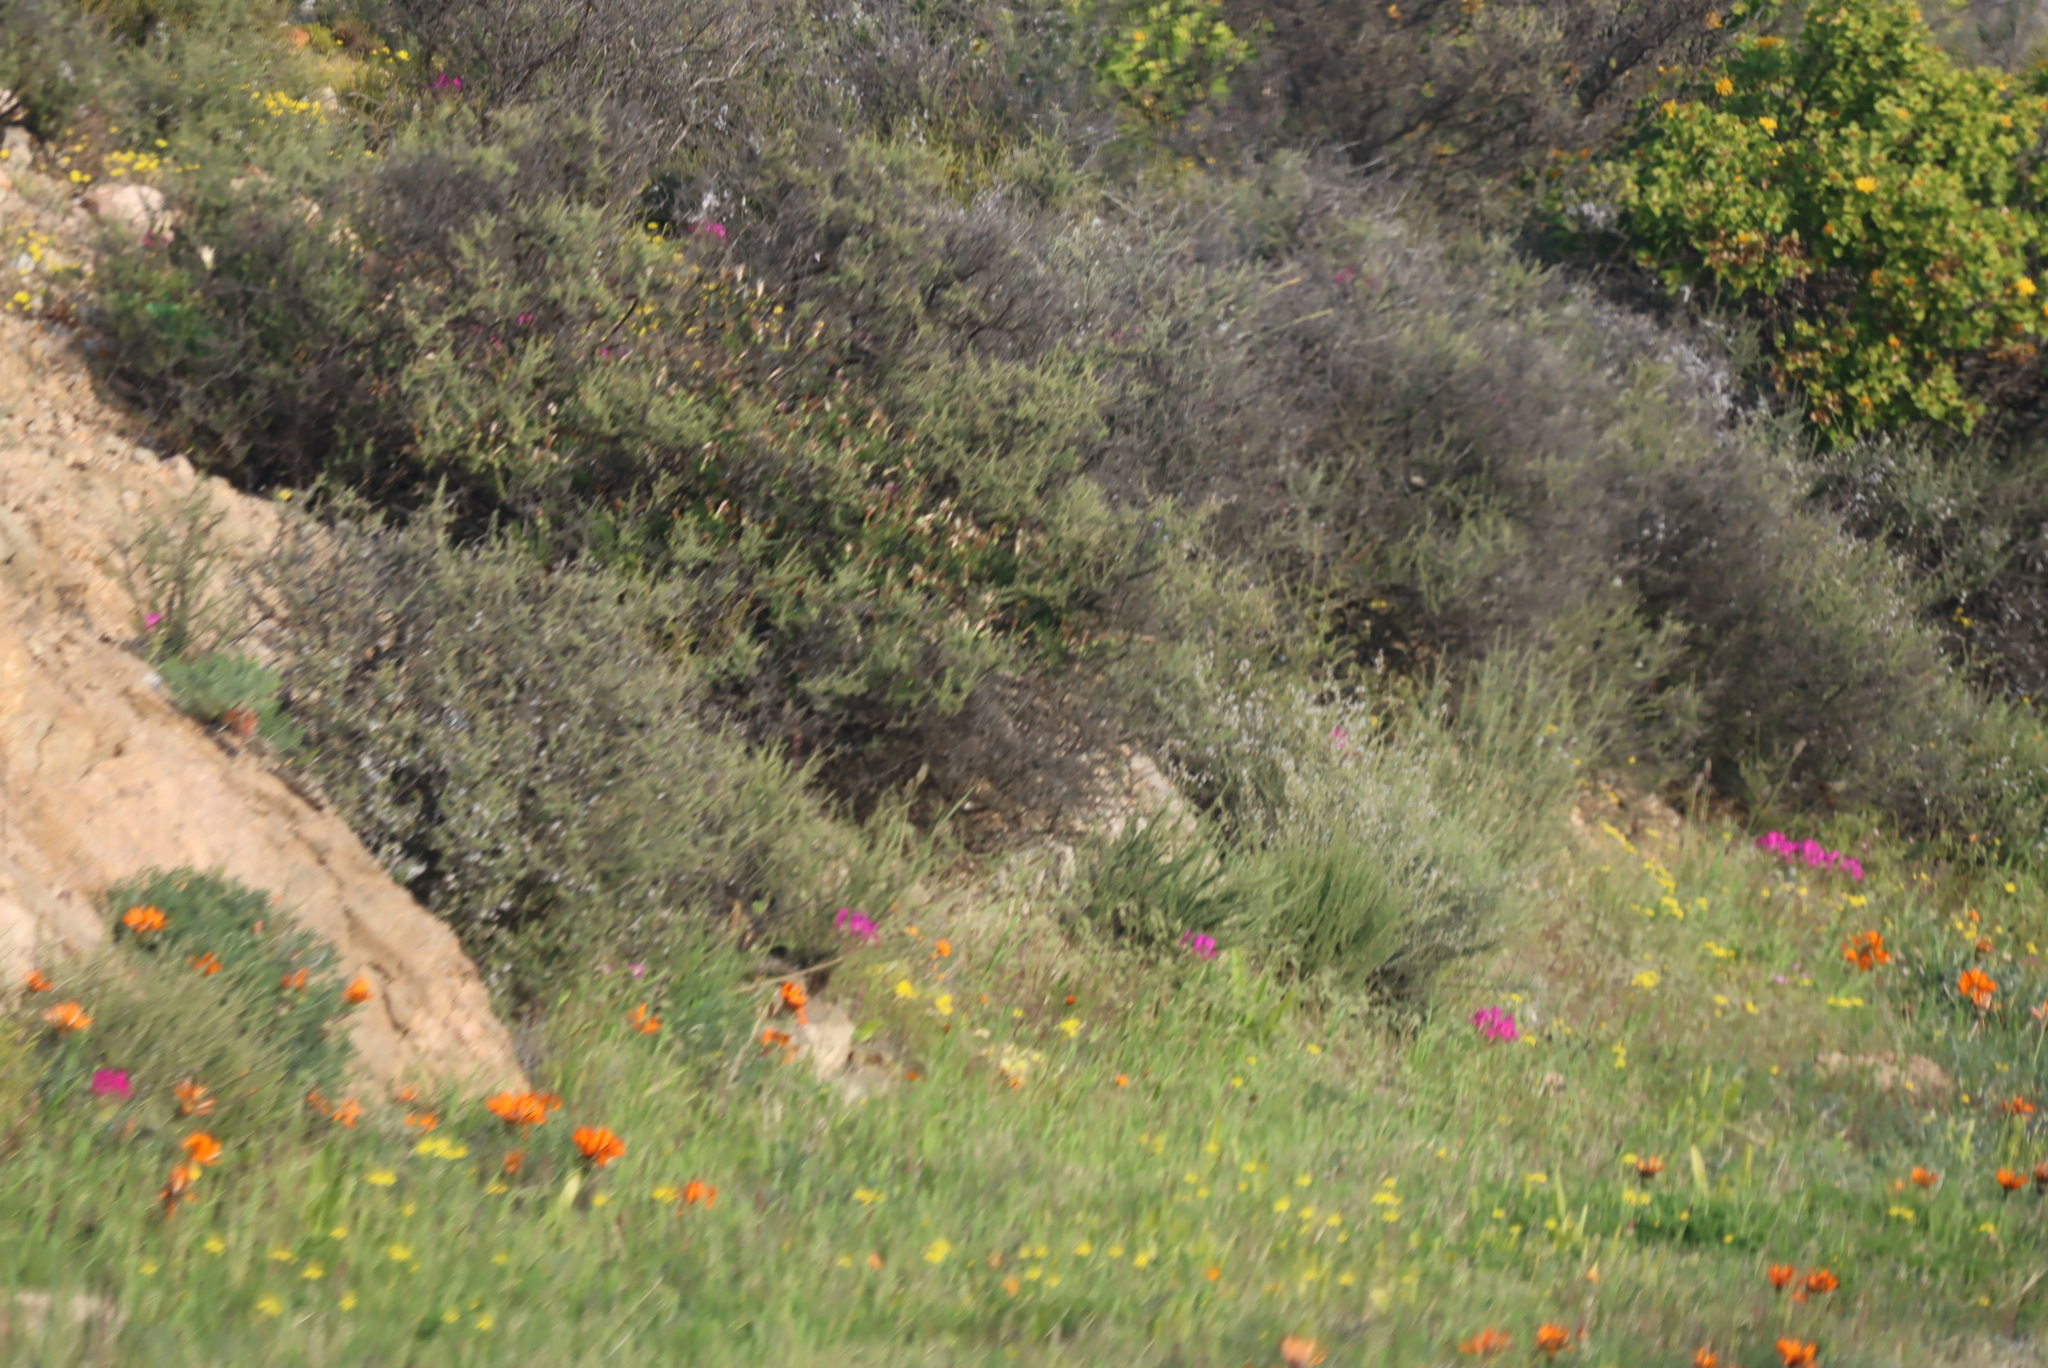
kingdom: Plantae
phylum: Tracheophyta
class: Magnoliopsida
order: Geraniales
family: Geraniaceae
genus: Pelargonium
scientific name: Pelargonium incrassatum
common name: Namaqualand beauty
